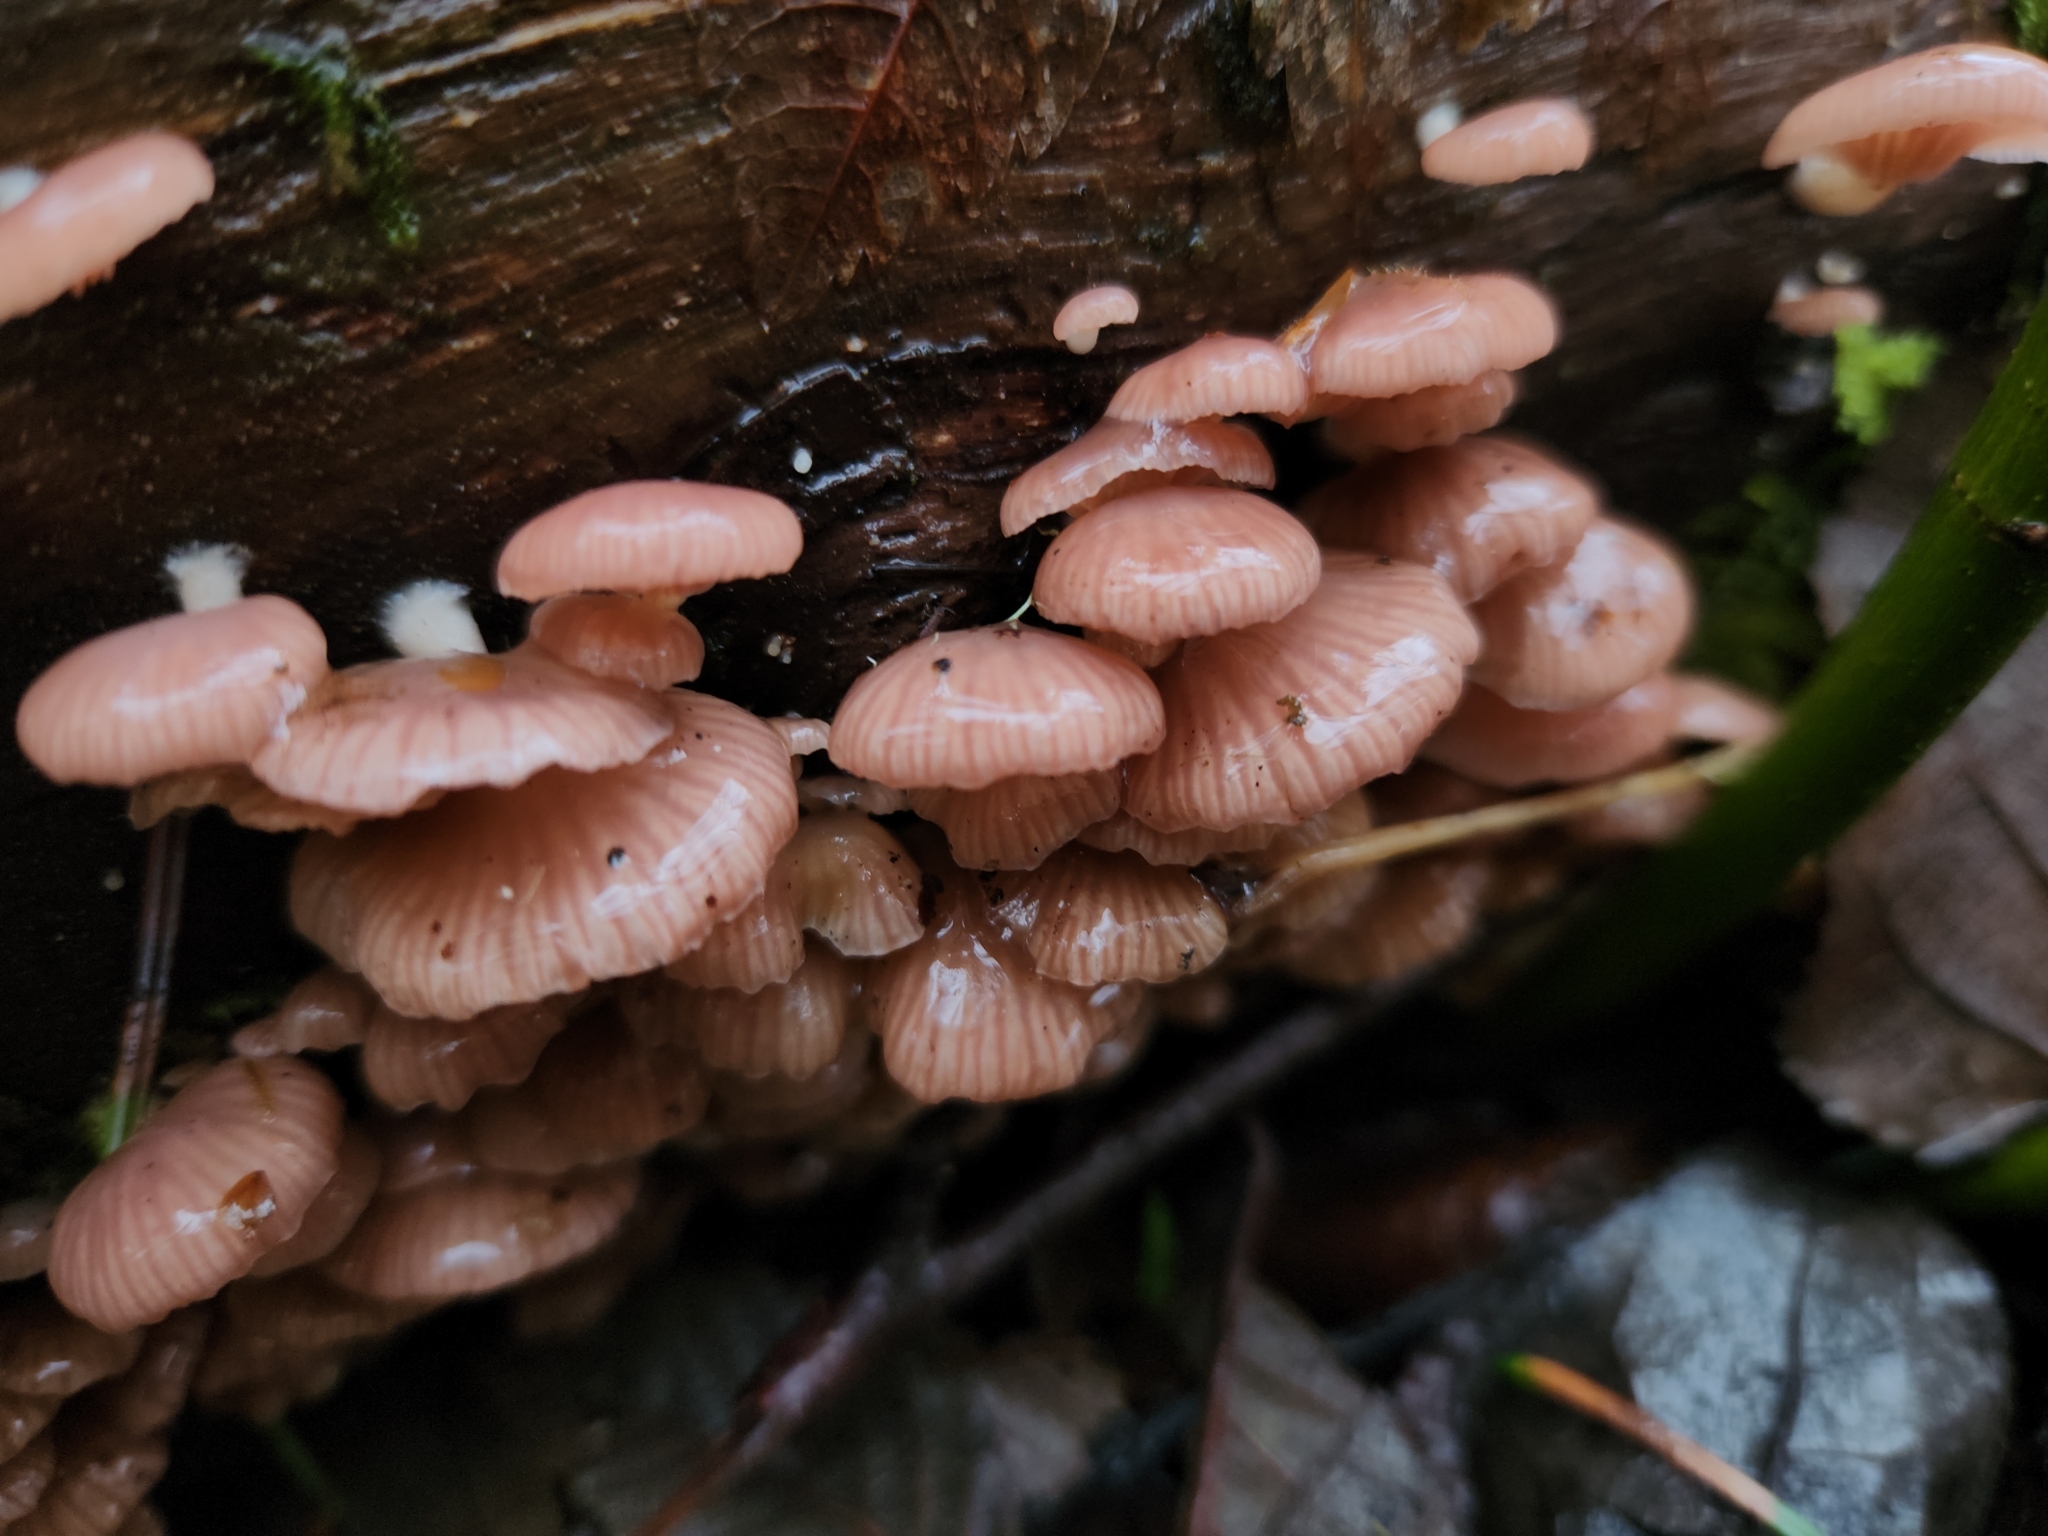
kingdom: Fungi
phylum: Basidiomycota
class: Agaricomycetes
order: Agaricales
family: Mycenaceae
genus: Panellus
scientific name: Panellus longinquus
